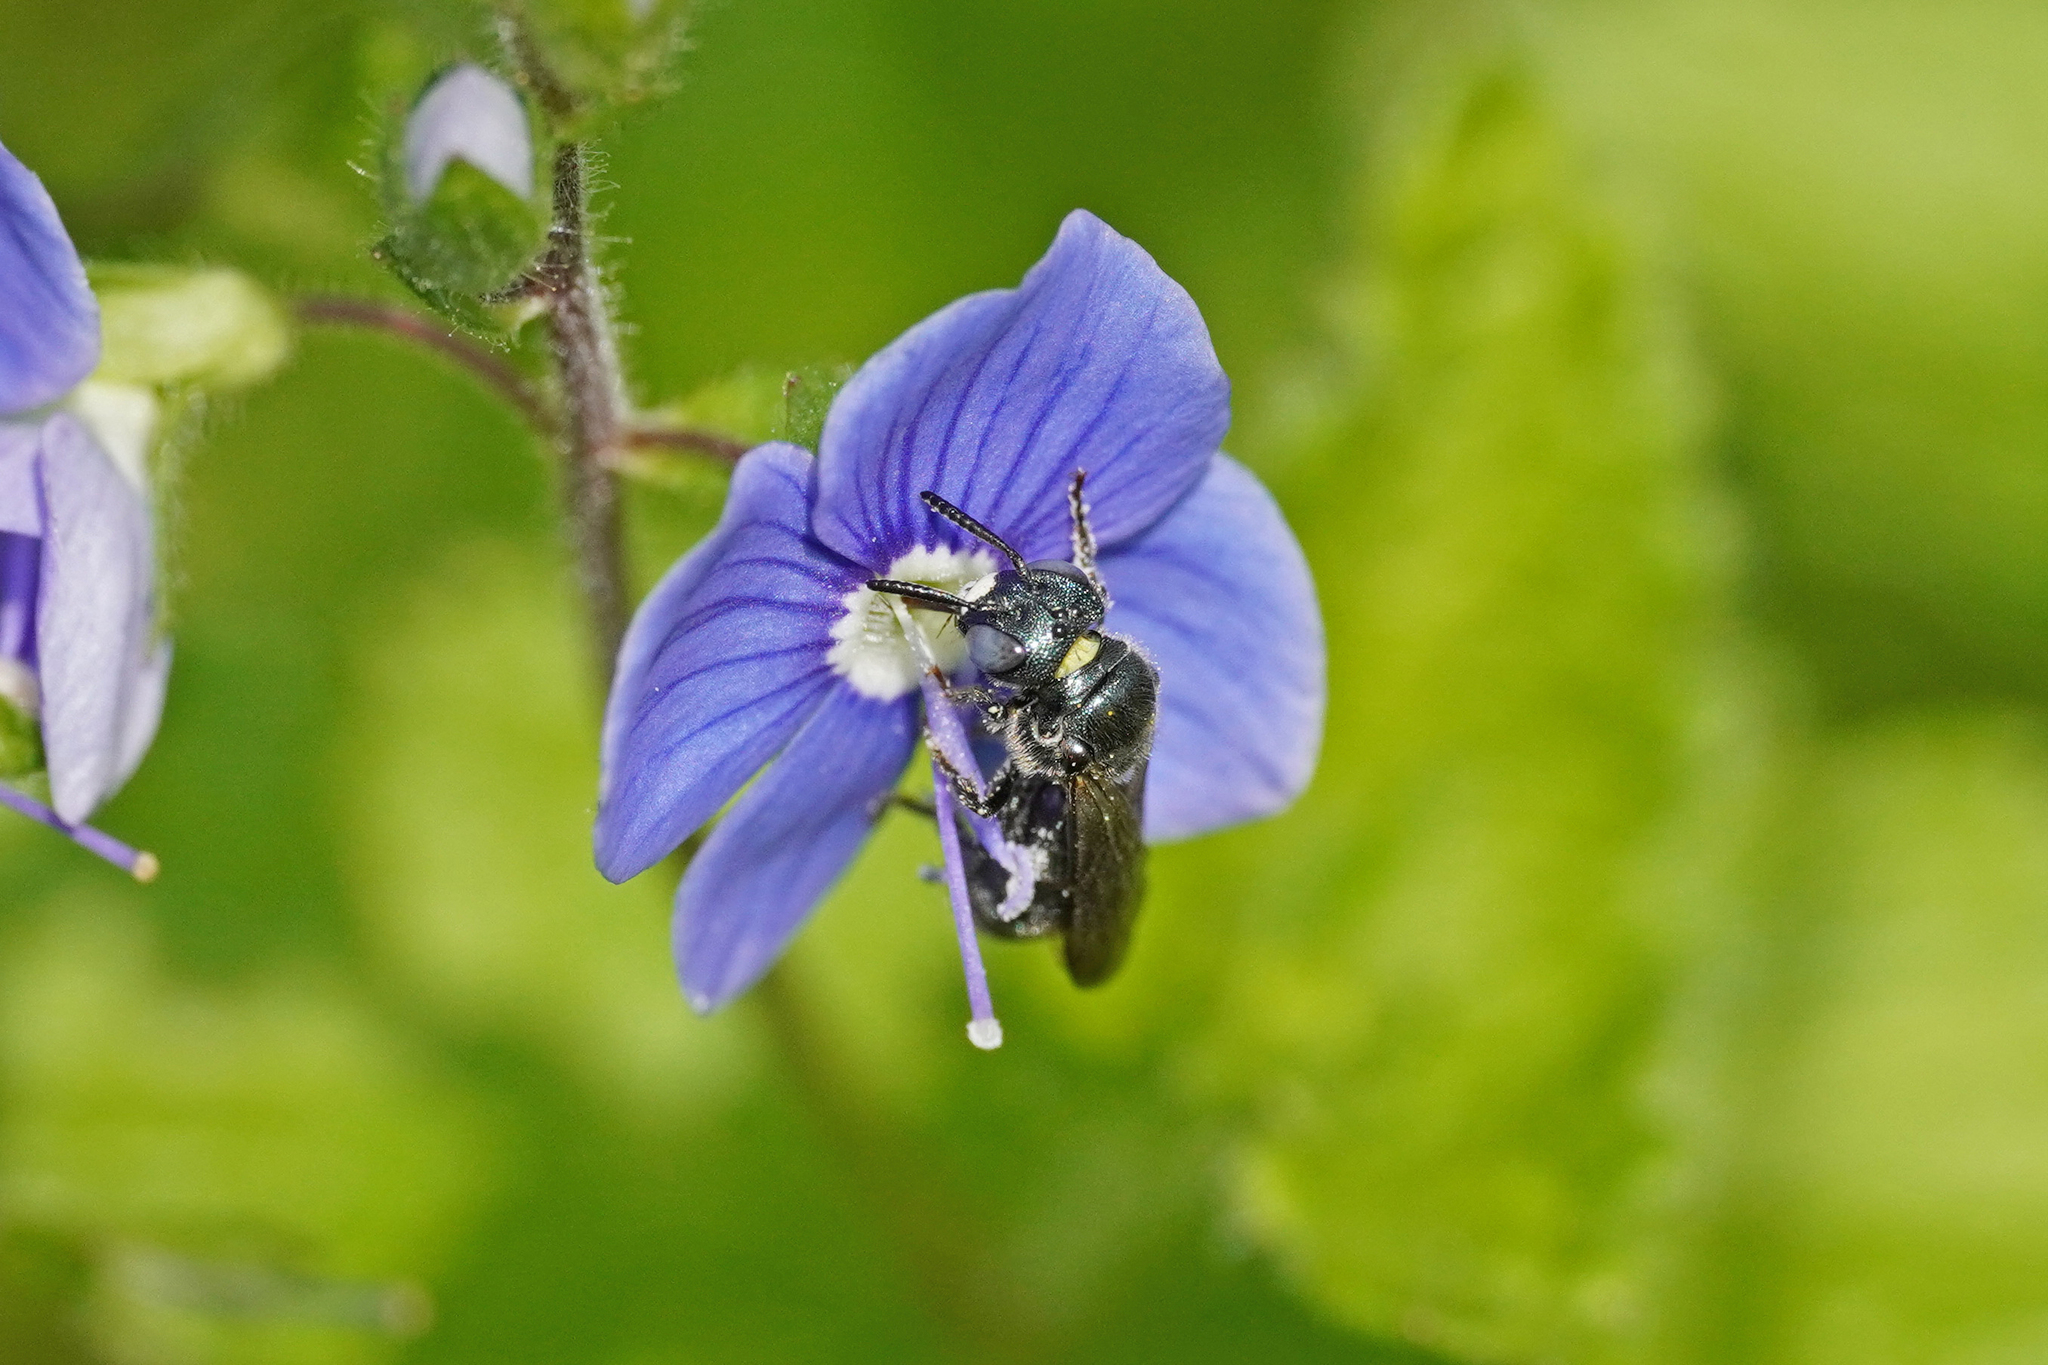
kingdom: Animalia
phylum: Arthropoda
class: Insecta
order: Hymenoptera
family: Apidae
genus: Ceratina
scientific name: Ceratina cyanea
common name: Little blue carpenter bee
